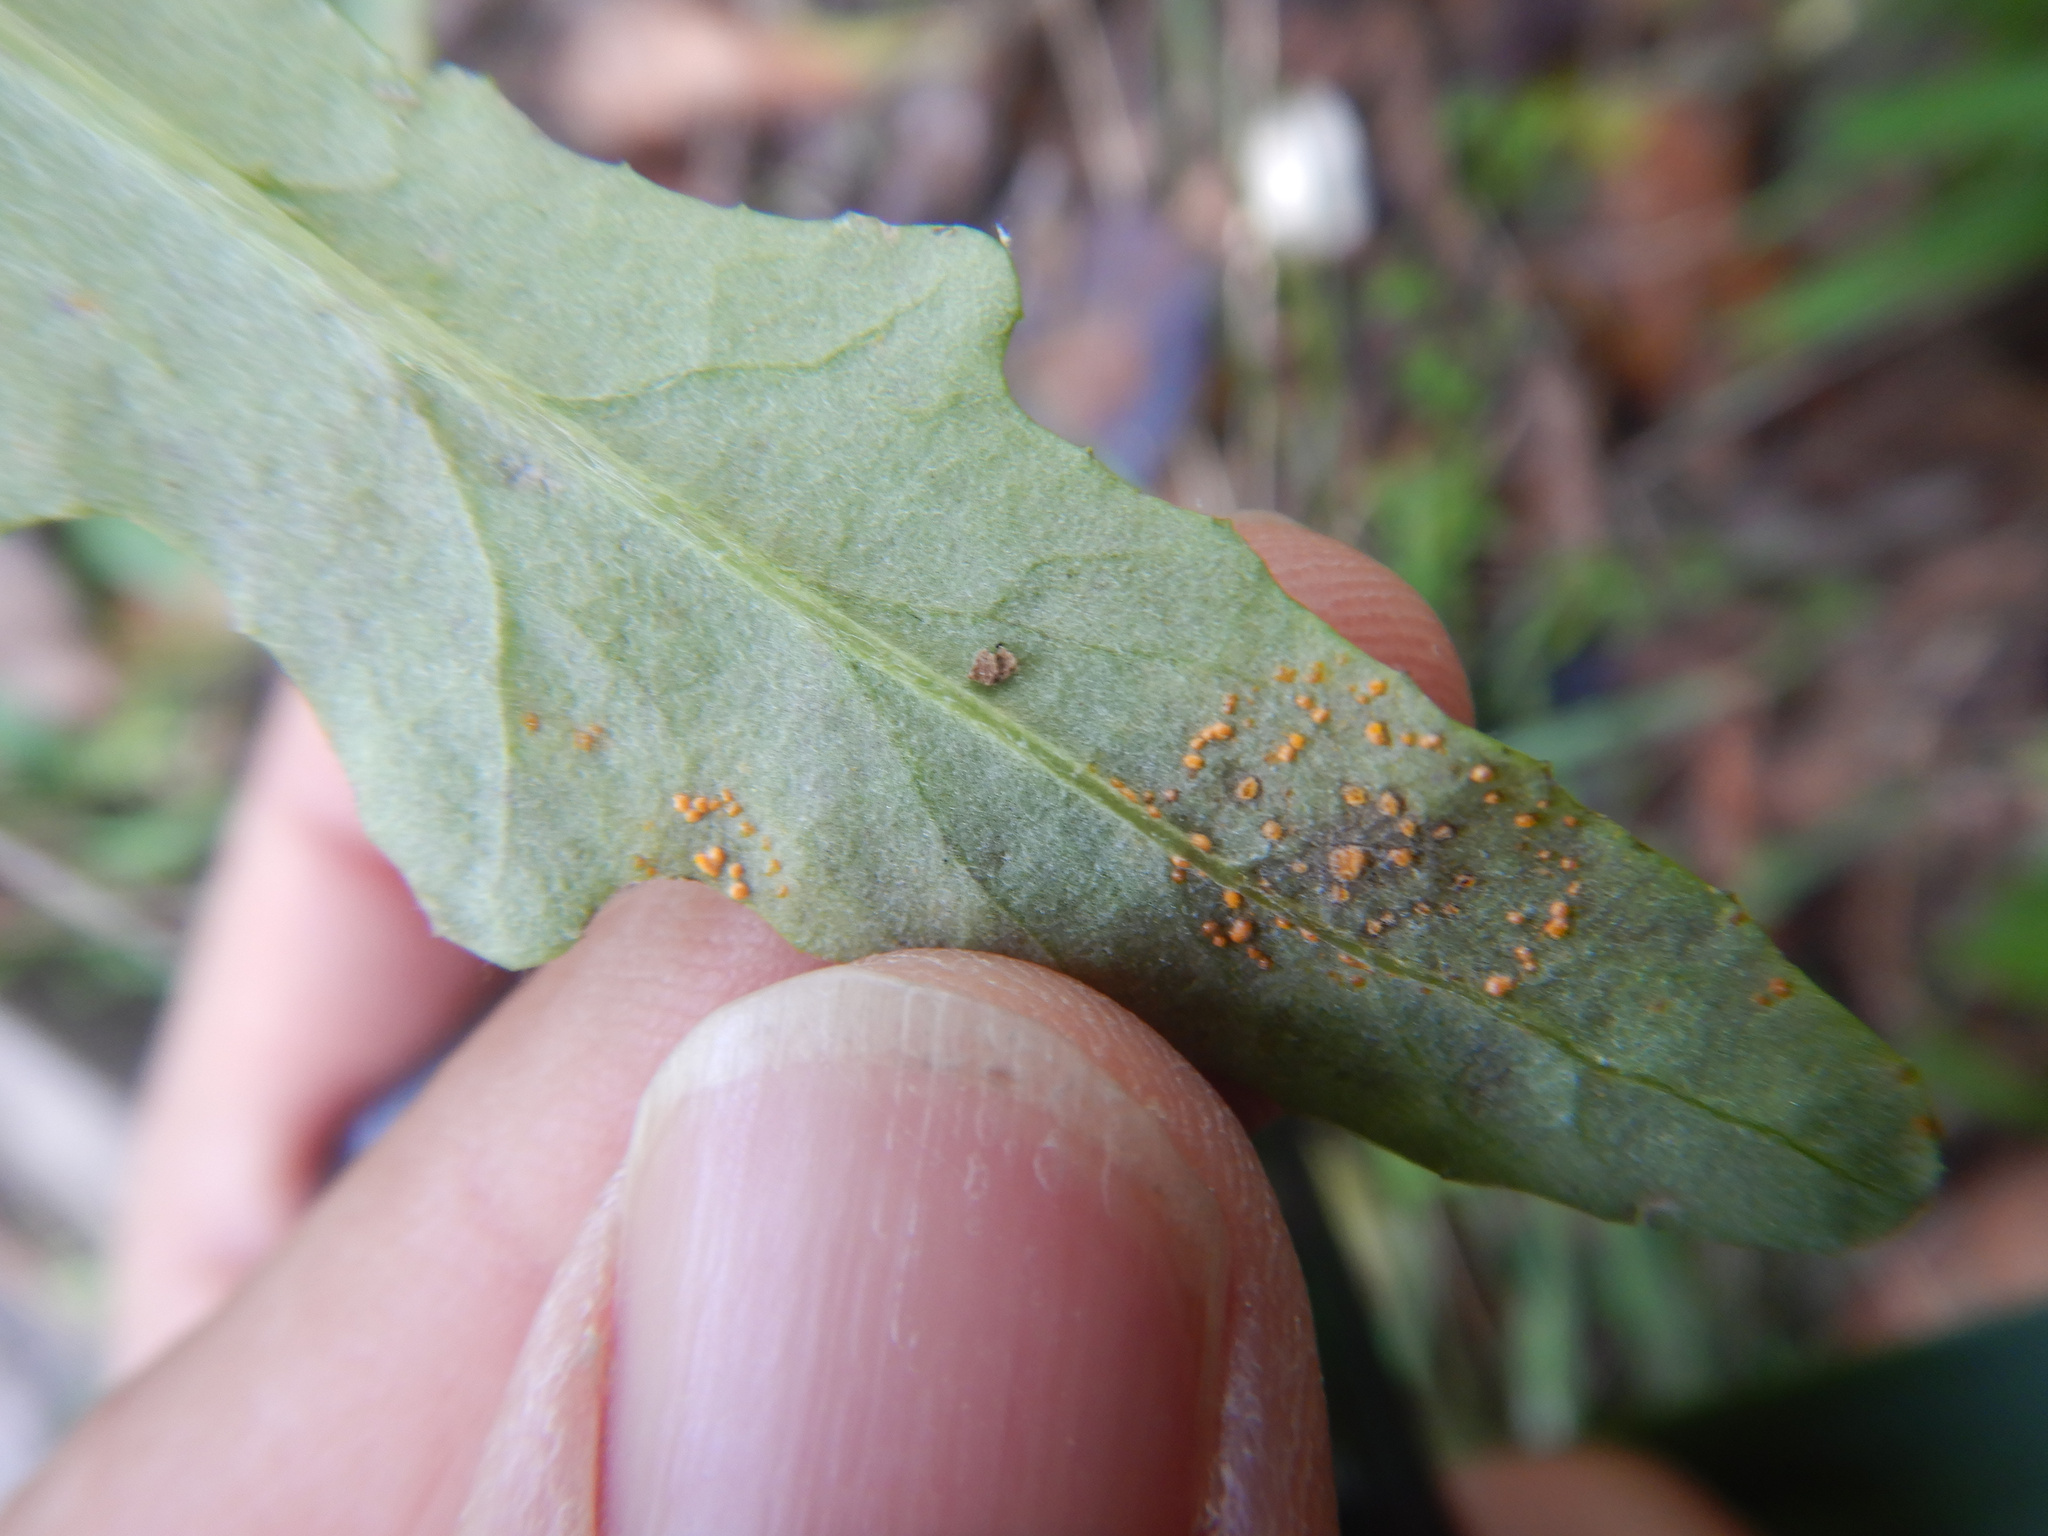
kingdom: Fungi
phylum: Basidiomycota
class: Pucciniomycetes
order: Pucciniales
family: Coleosporiaceae
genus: Coleosporium
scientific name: Coleosporium tussilaginis
